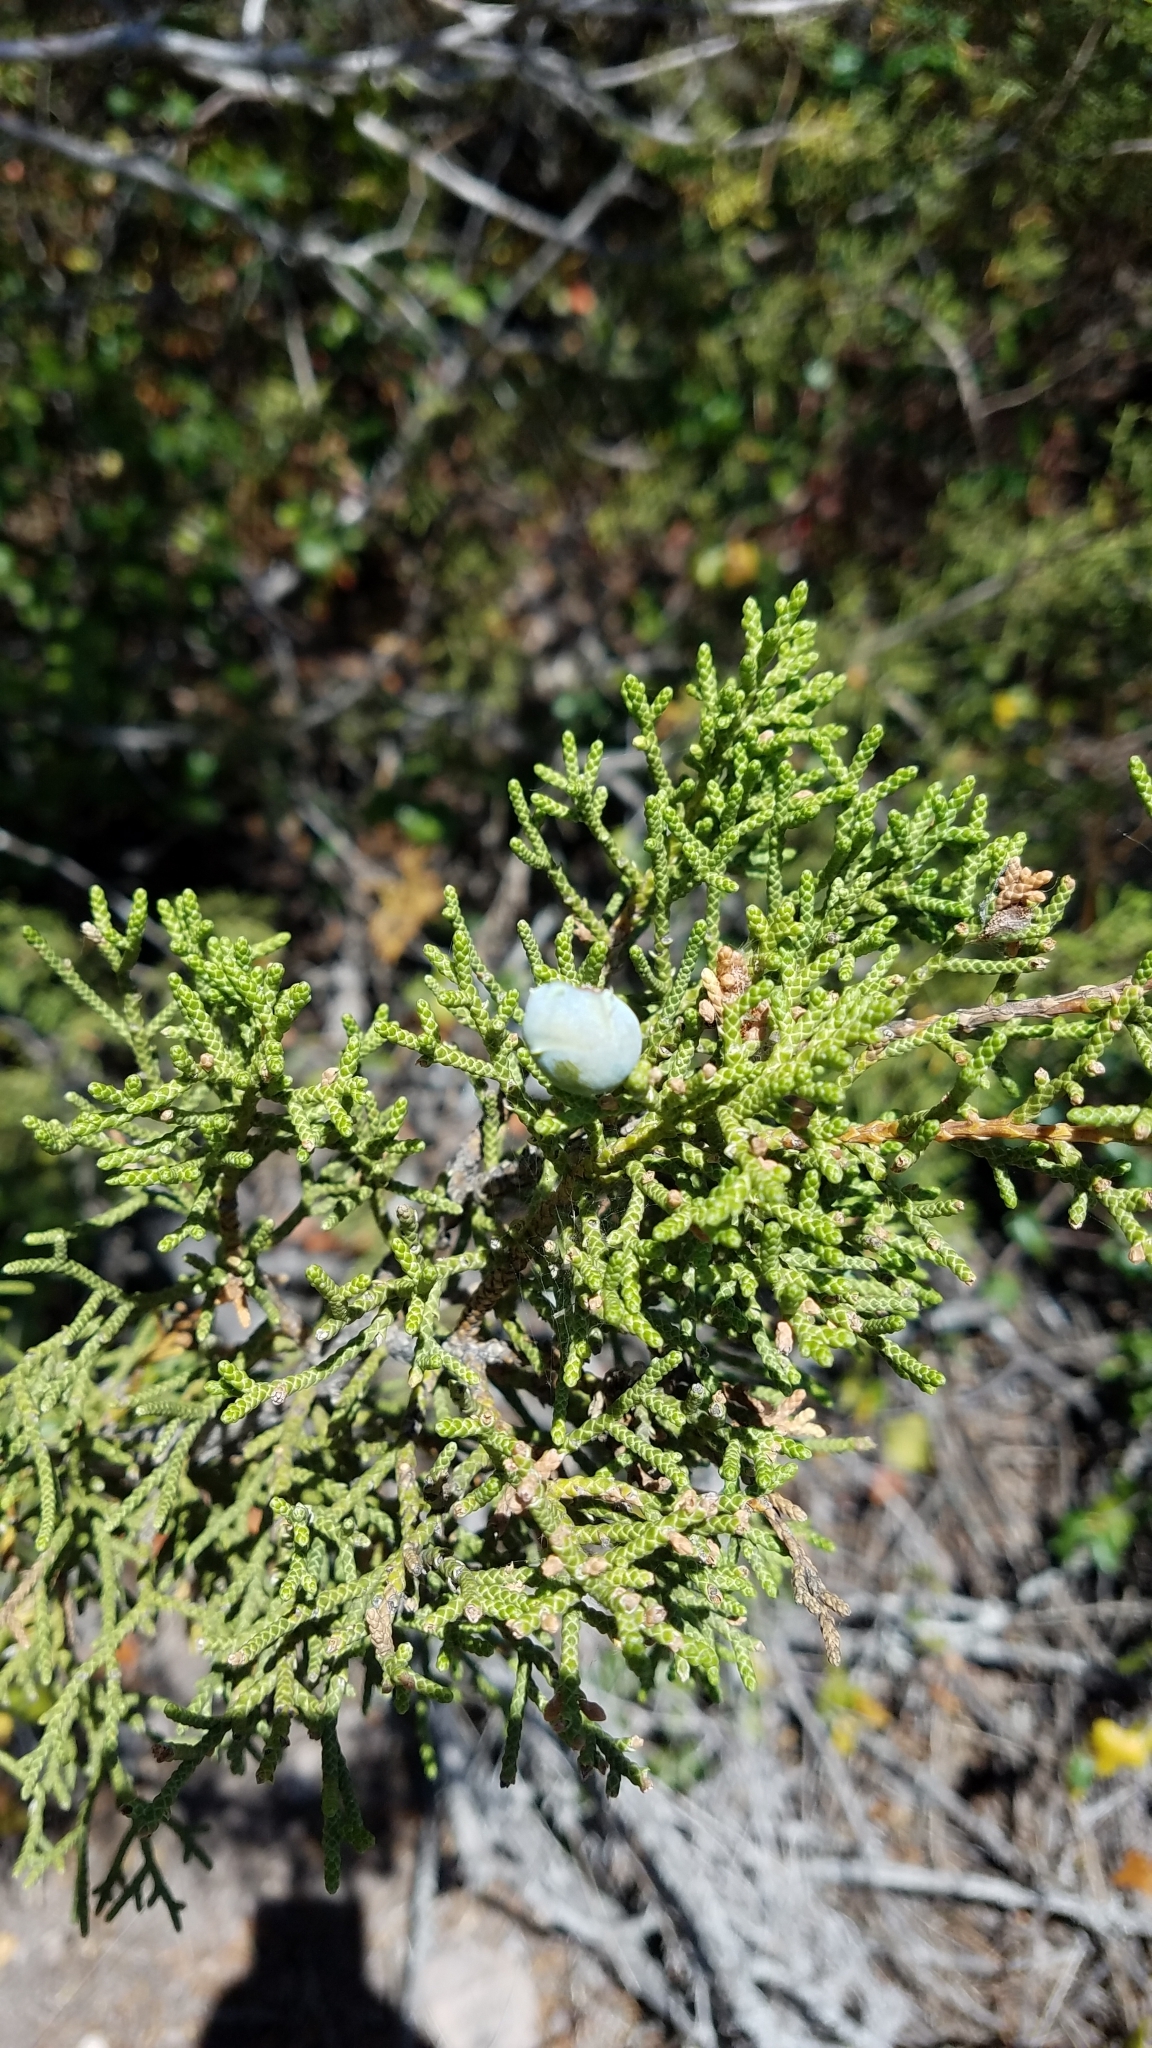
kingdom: Plantae
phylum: Tracheophyta
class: Pinopsida
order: Pinales
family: Cupressaceae
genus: Juniperus
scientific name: Juniperus californica
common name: California juniper
